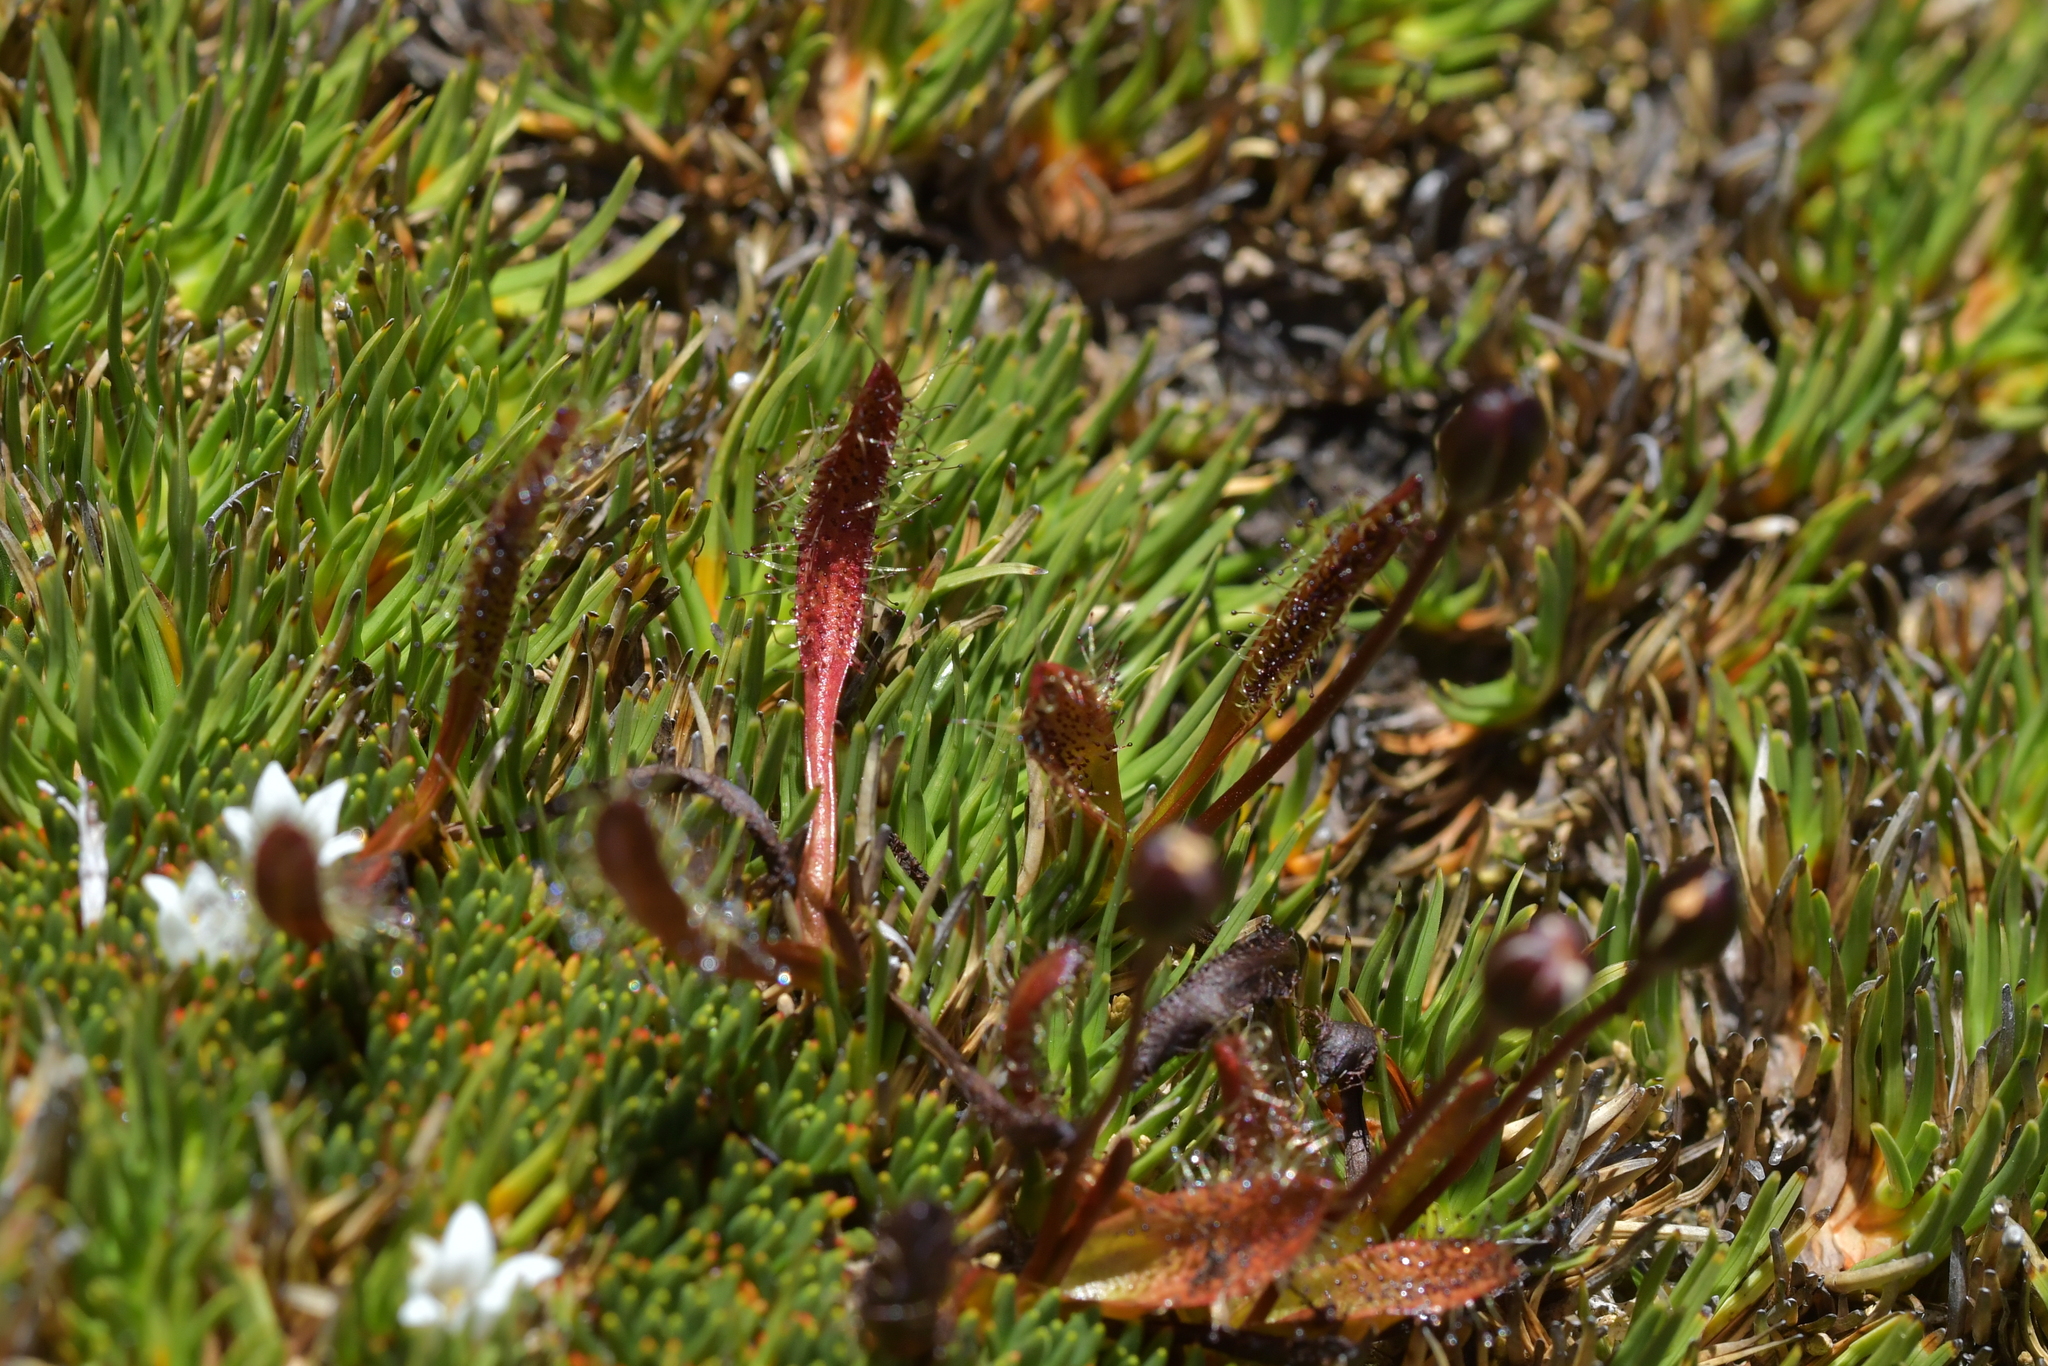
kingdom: Plantae
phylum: Tracheophyta
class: Magnoliopsida
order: Caryophyllales
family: Droseraceae
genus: Drosera
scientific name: Drosera arcturi
